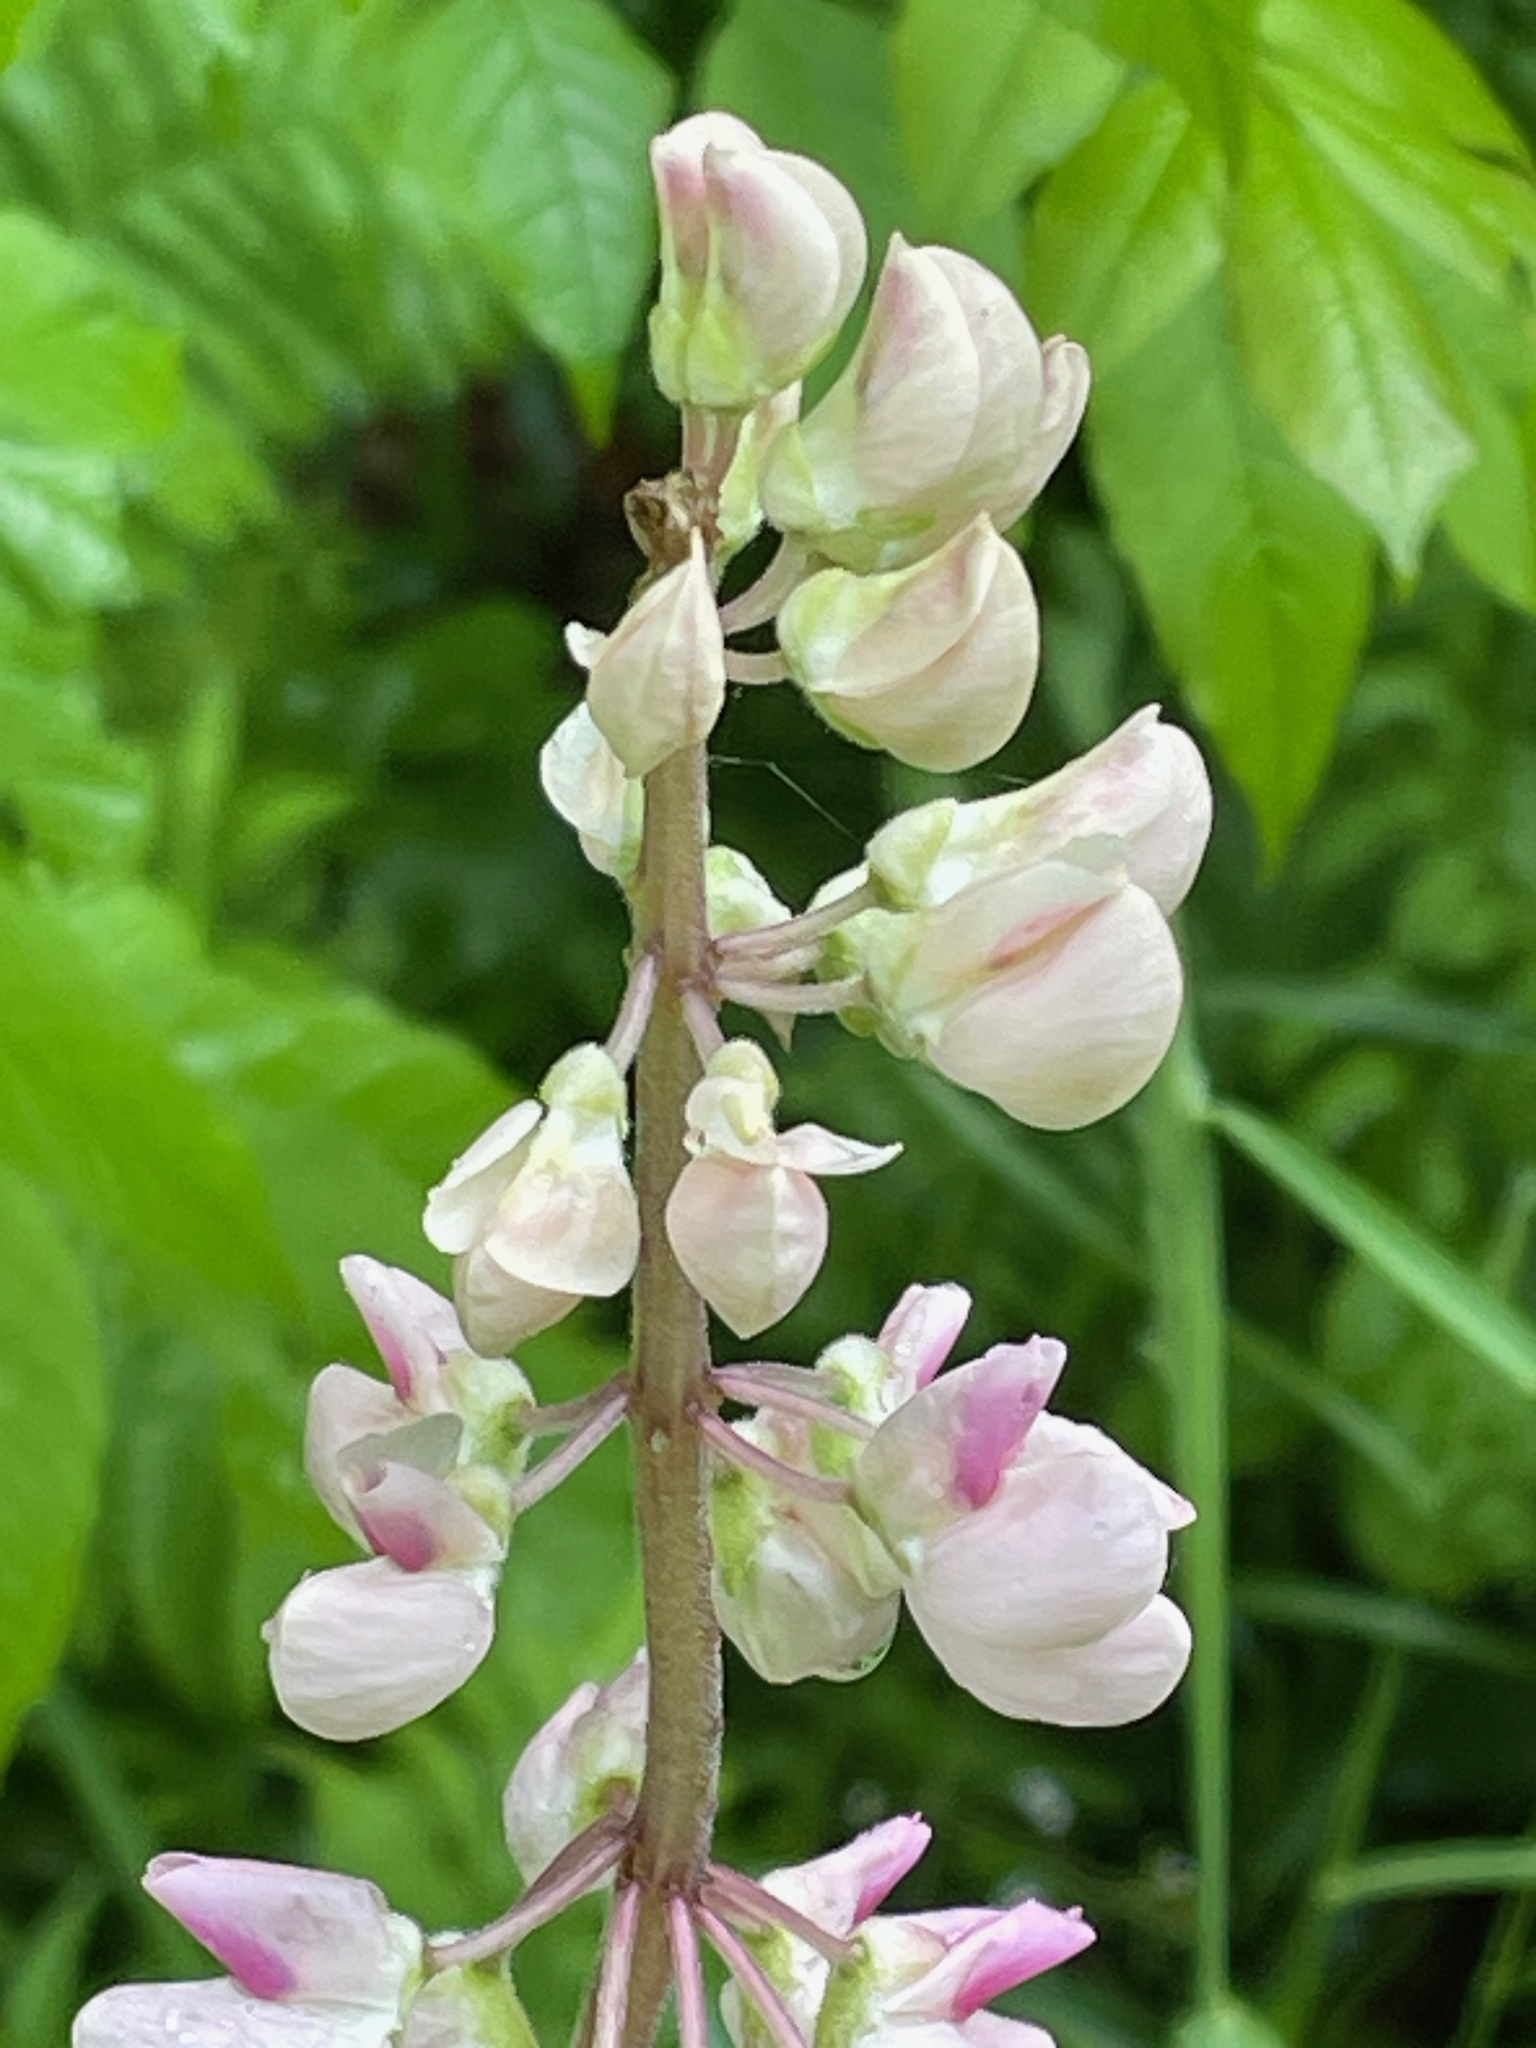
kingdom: Plantae
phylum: Tracheophyta
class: Magnoliopsida
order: Fabales
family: Fabaceae
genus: Lupinus
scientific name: Lupinus polyphyllus
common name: Garden lupin
